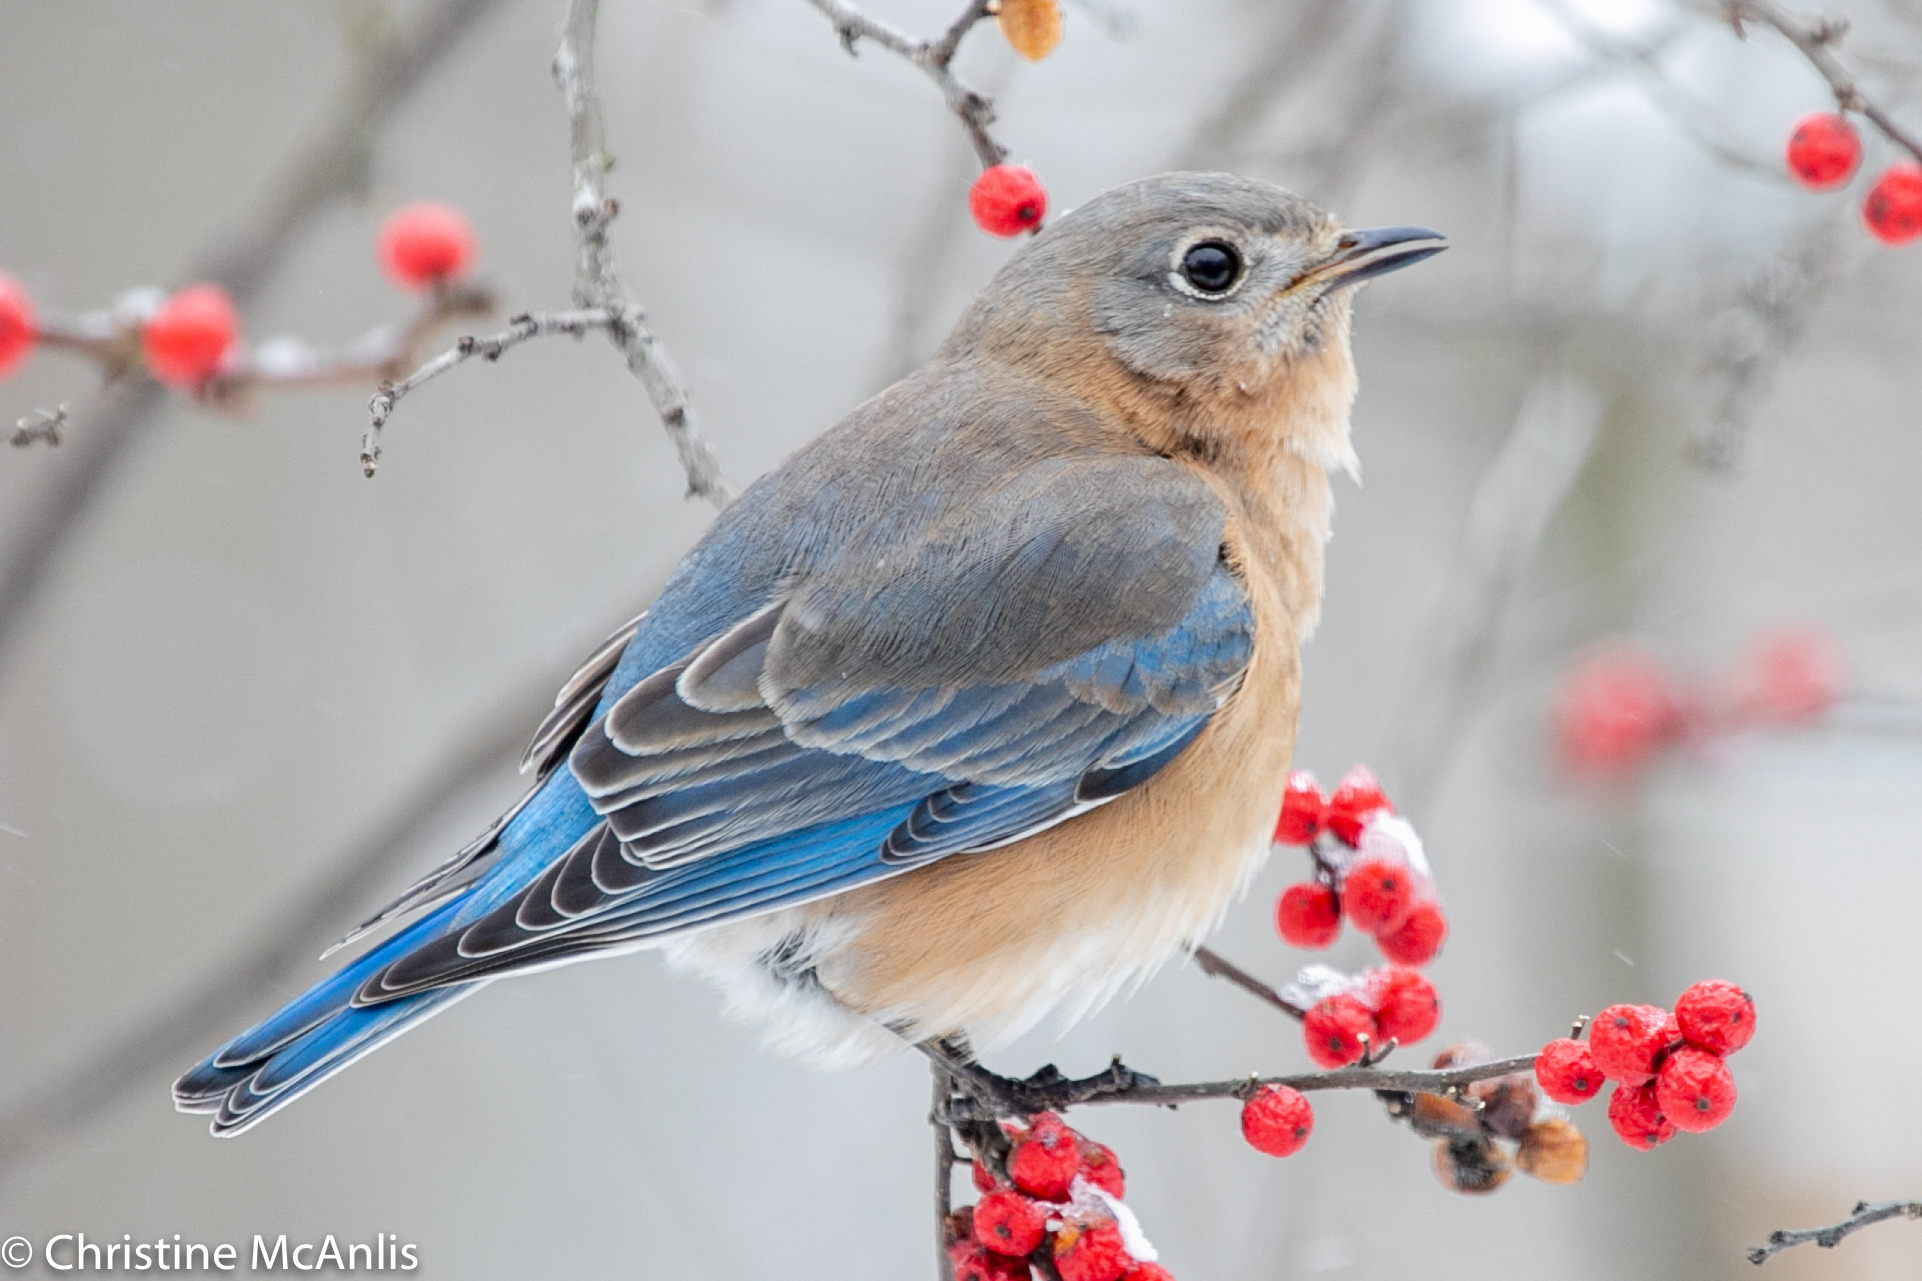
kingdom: Animalia
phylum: Chordata
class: Aves
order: Passeriformes
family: Turdidae
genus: Sialia
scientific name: Sialia sialis
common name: Eastern bluebird
